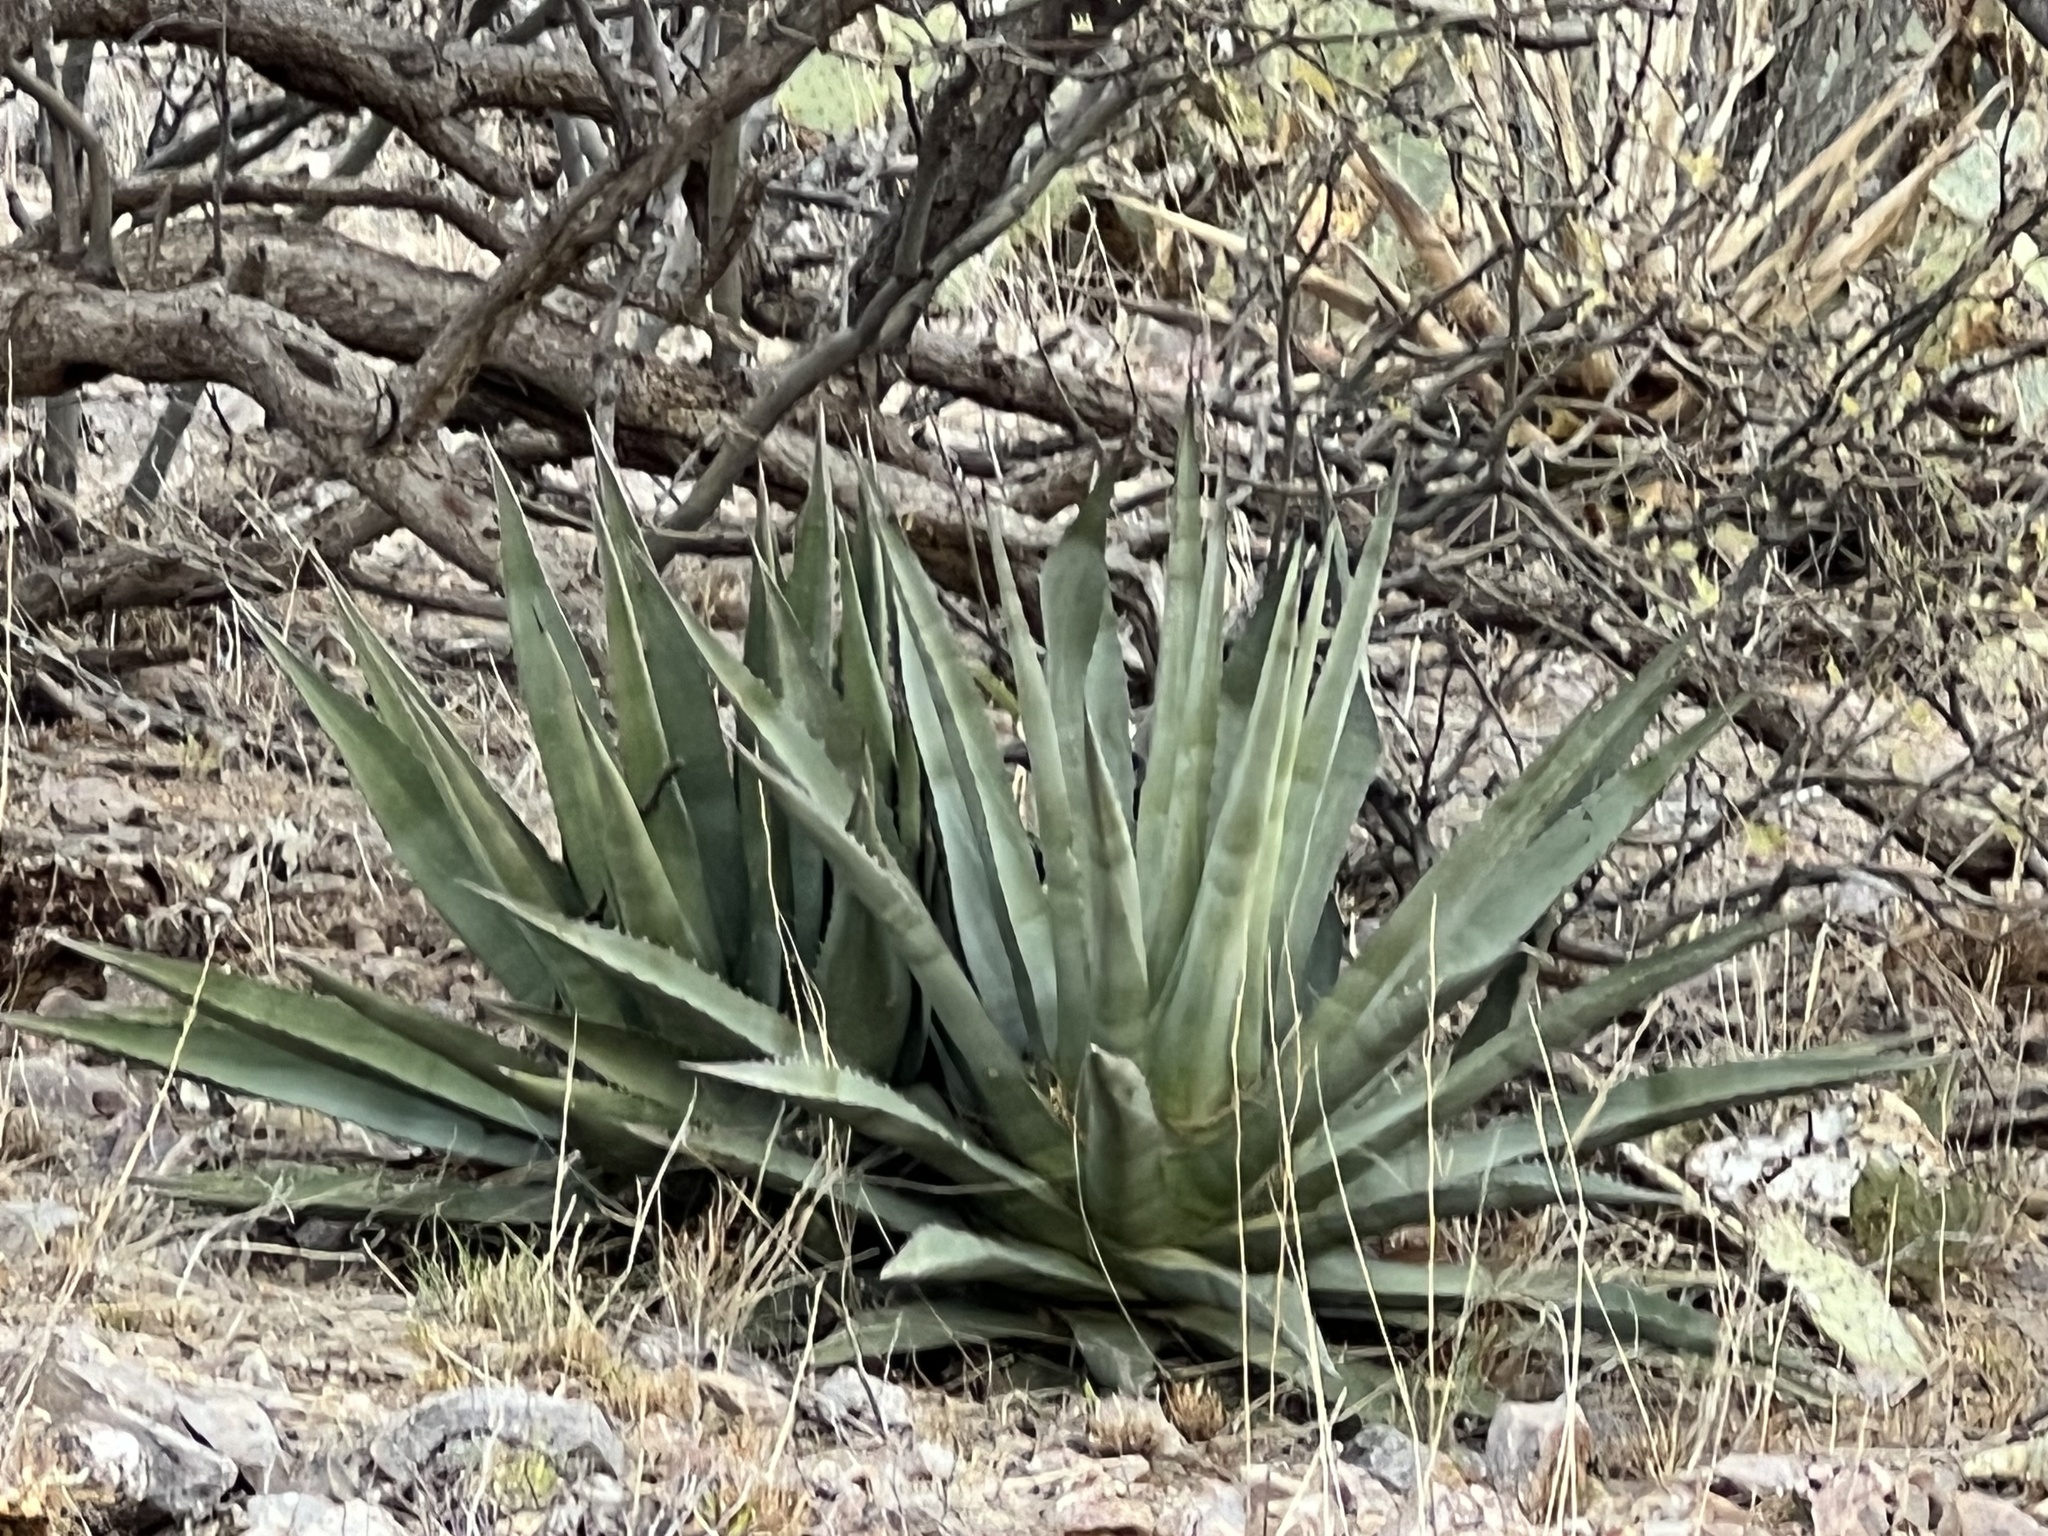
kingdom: Plantae
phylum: Tracheophyta
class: Liliopsida
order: Asparagales
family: Asparagaceae
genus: Agave
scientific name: Agave palmeri
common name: Palmer agave
